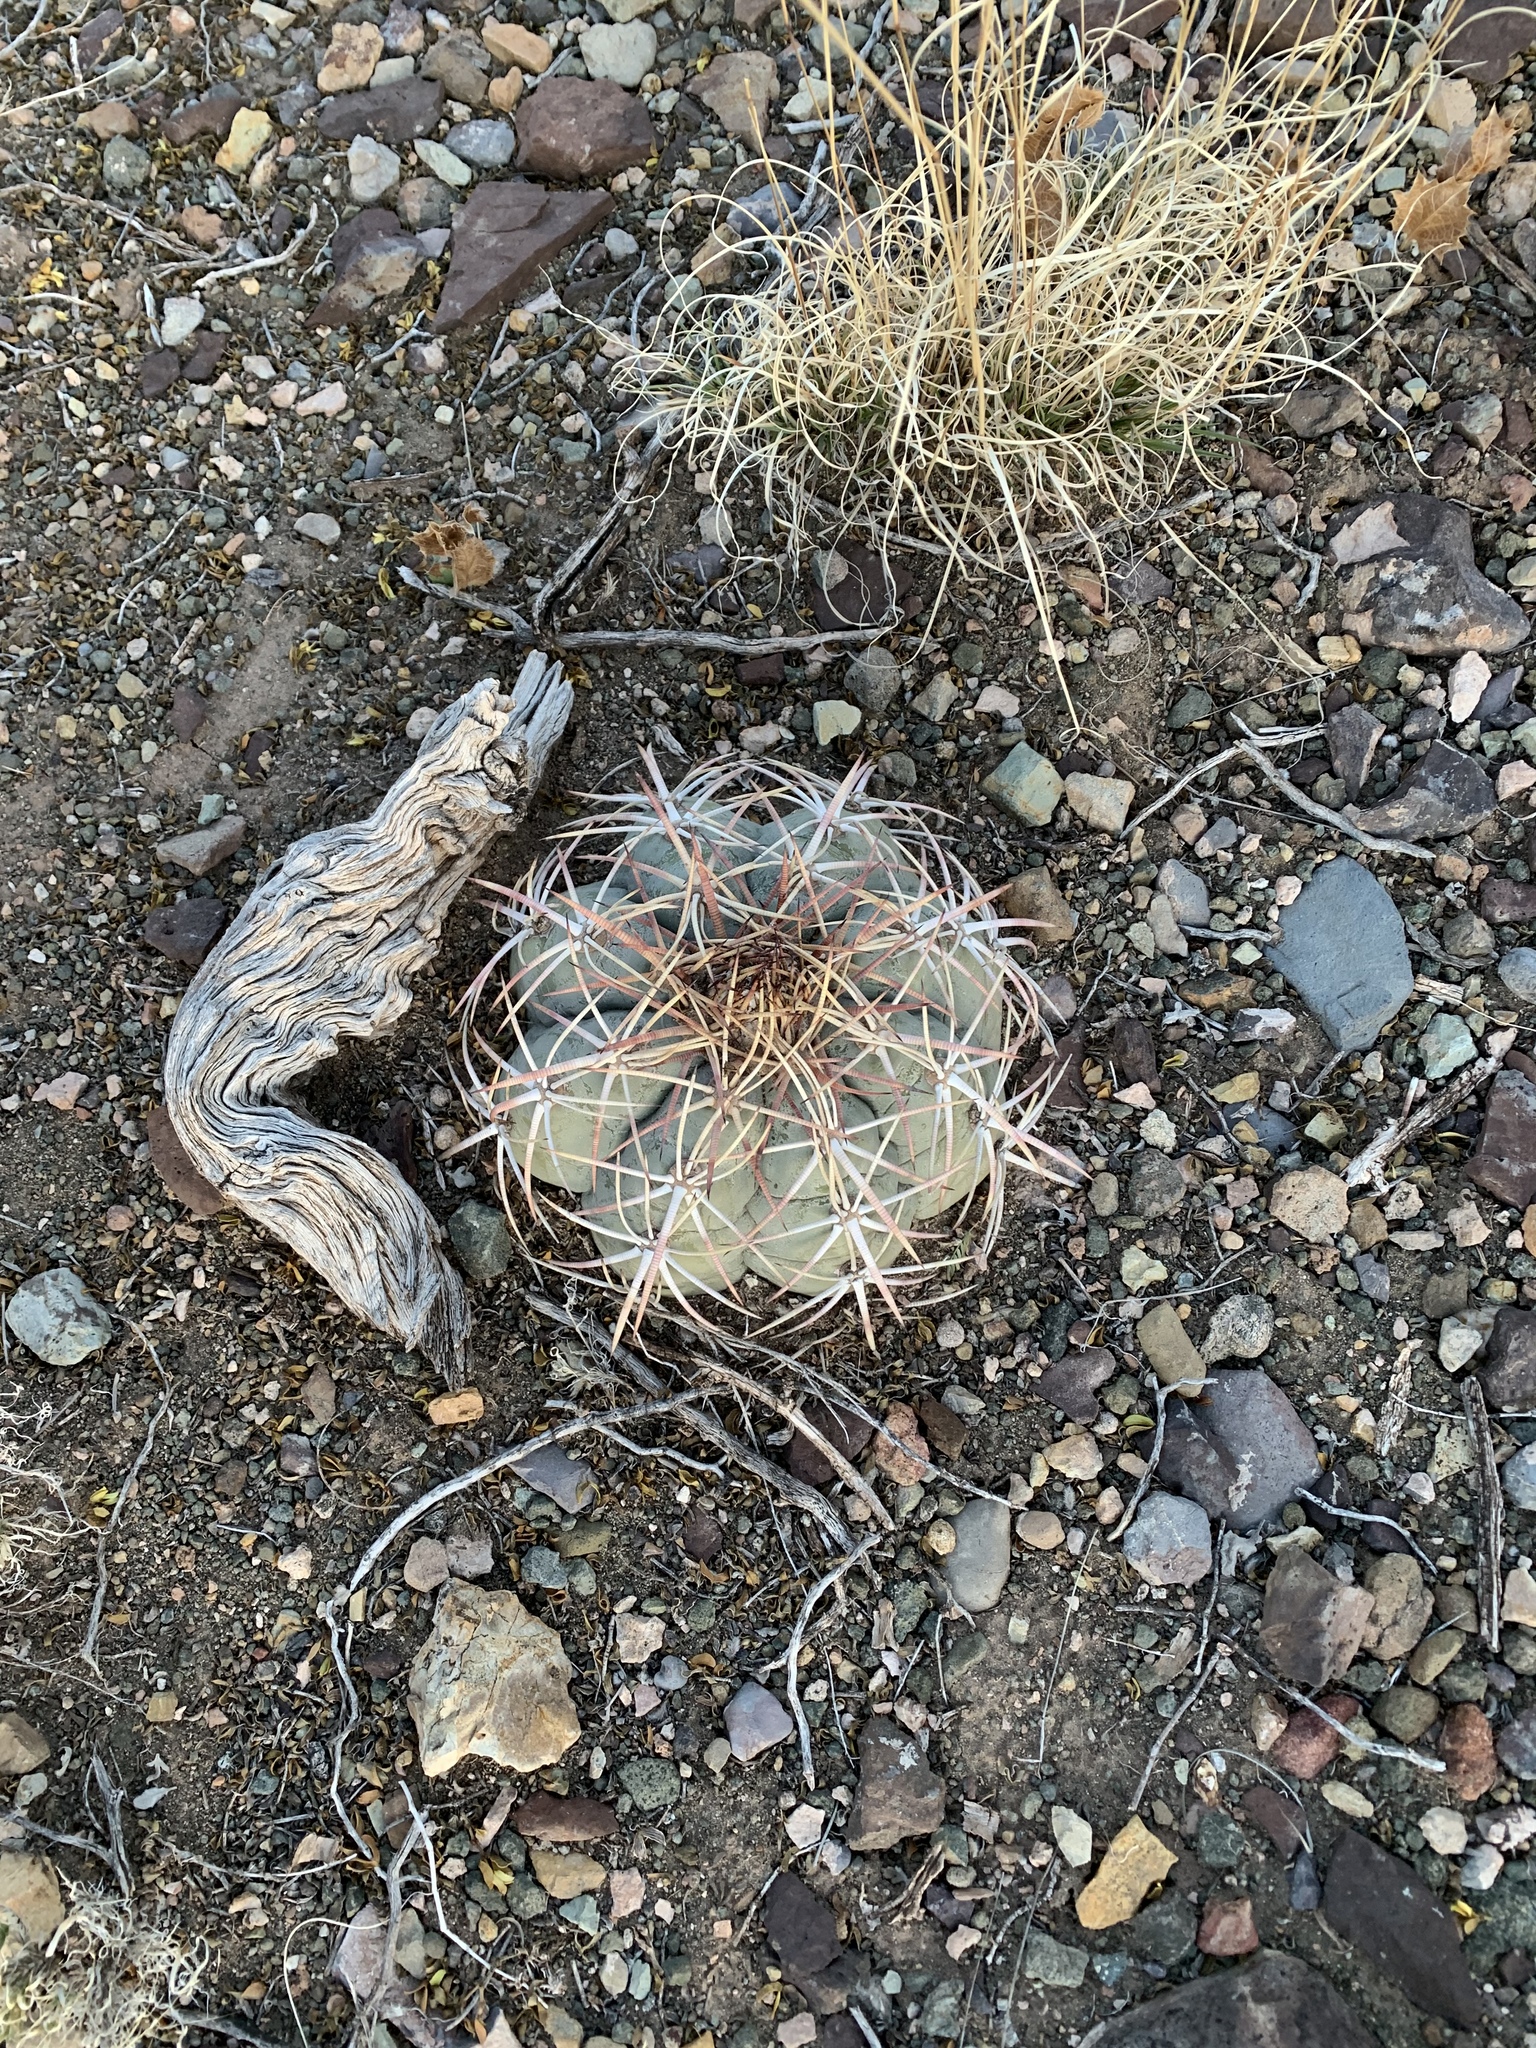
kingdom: Plantae
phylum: Tracheophyta
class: Magnoliopsida
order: Caryophyllales
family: Cactaceae
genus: Echinocactus
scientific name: Echinocactus horizonthalonius
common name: Devilshead
